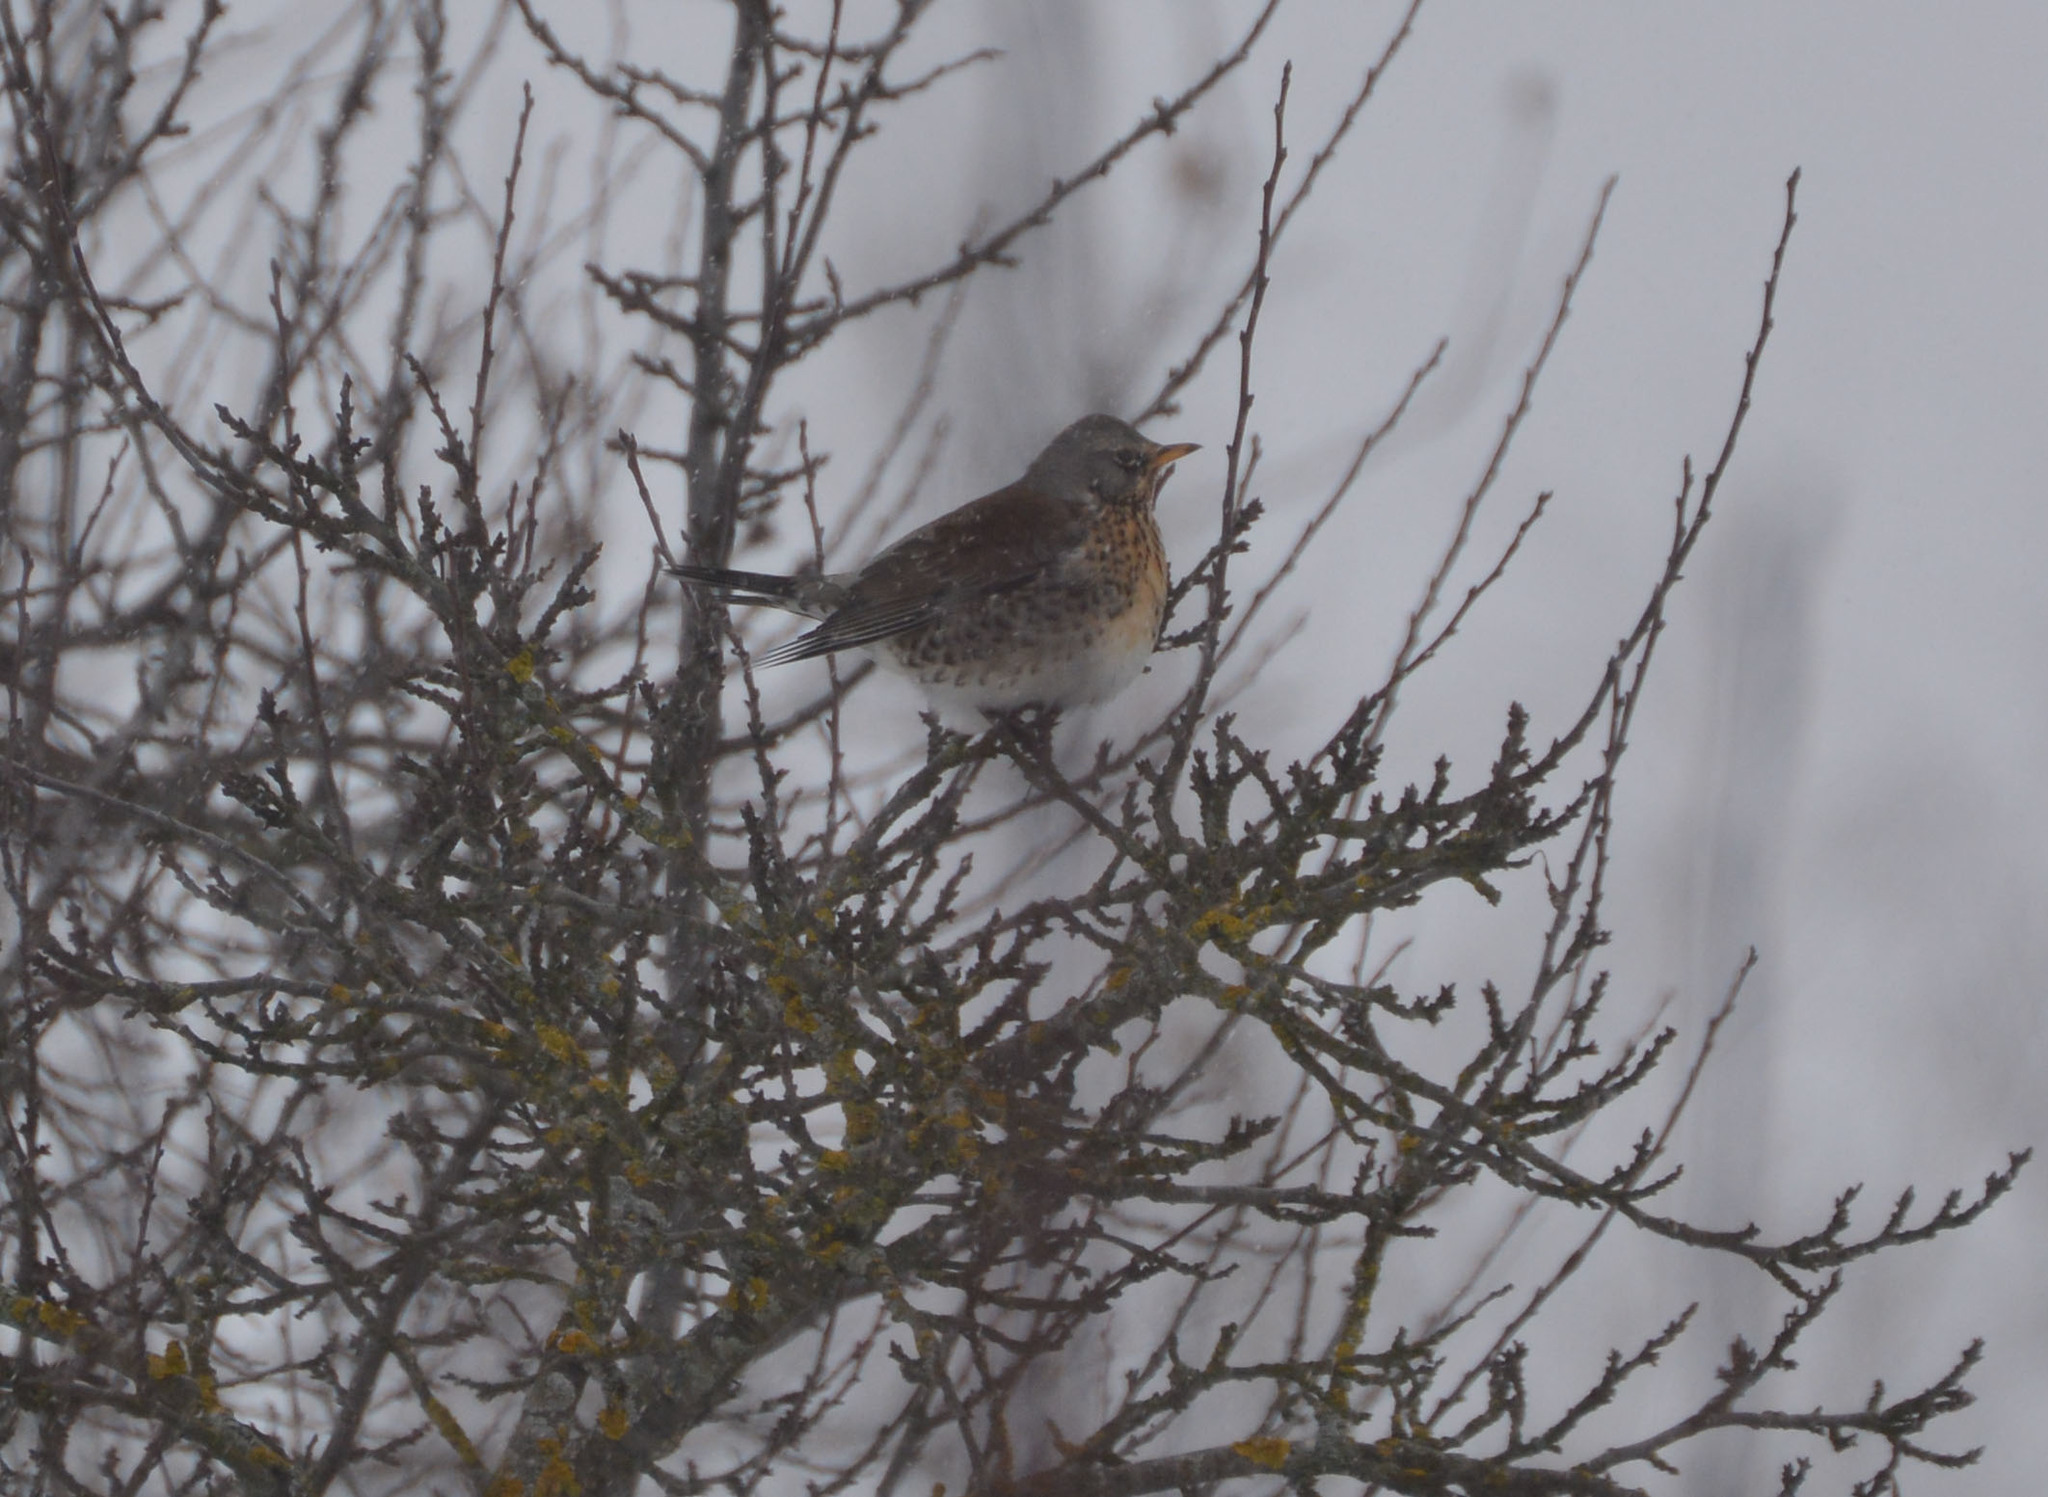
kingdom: Animalia
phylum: Chordata
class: Aves
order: Passeriformes
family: Turdidae
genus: Turdus
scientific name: Turdus pilaris
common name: Fieldfare
